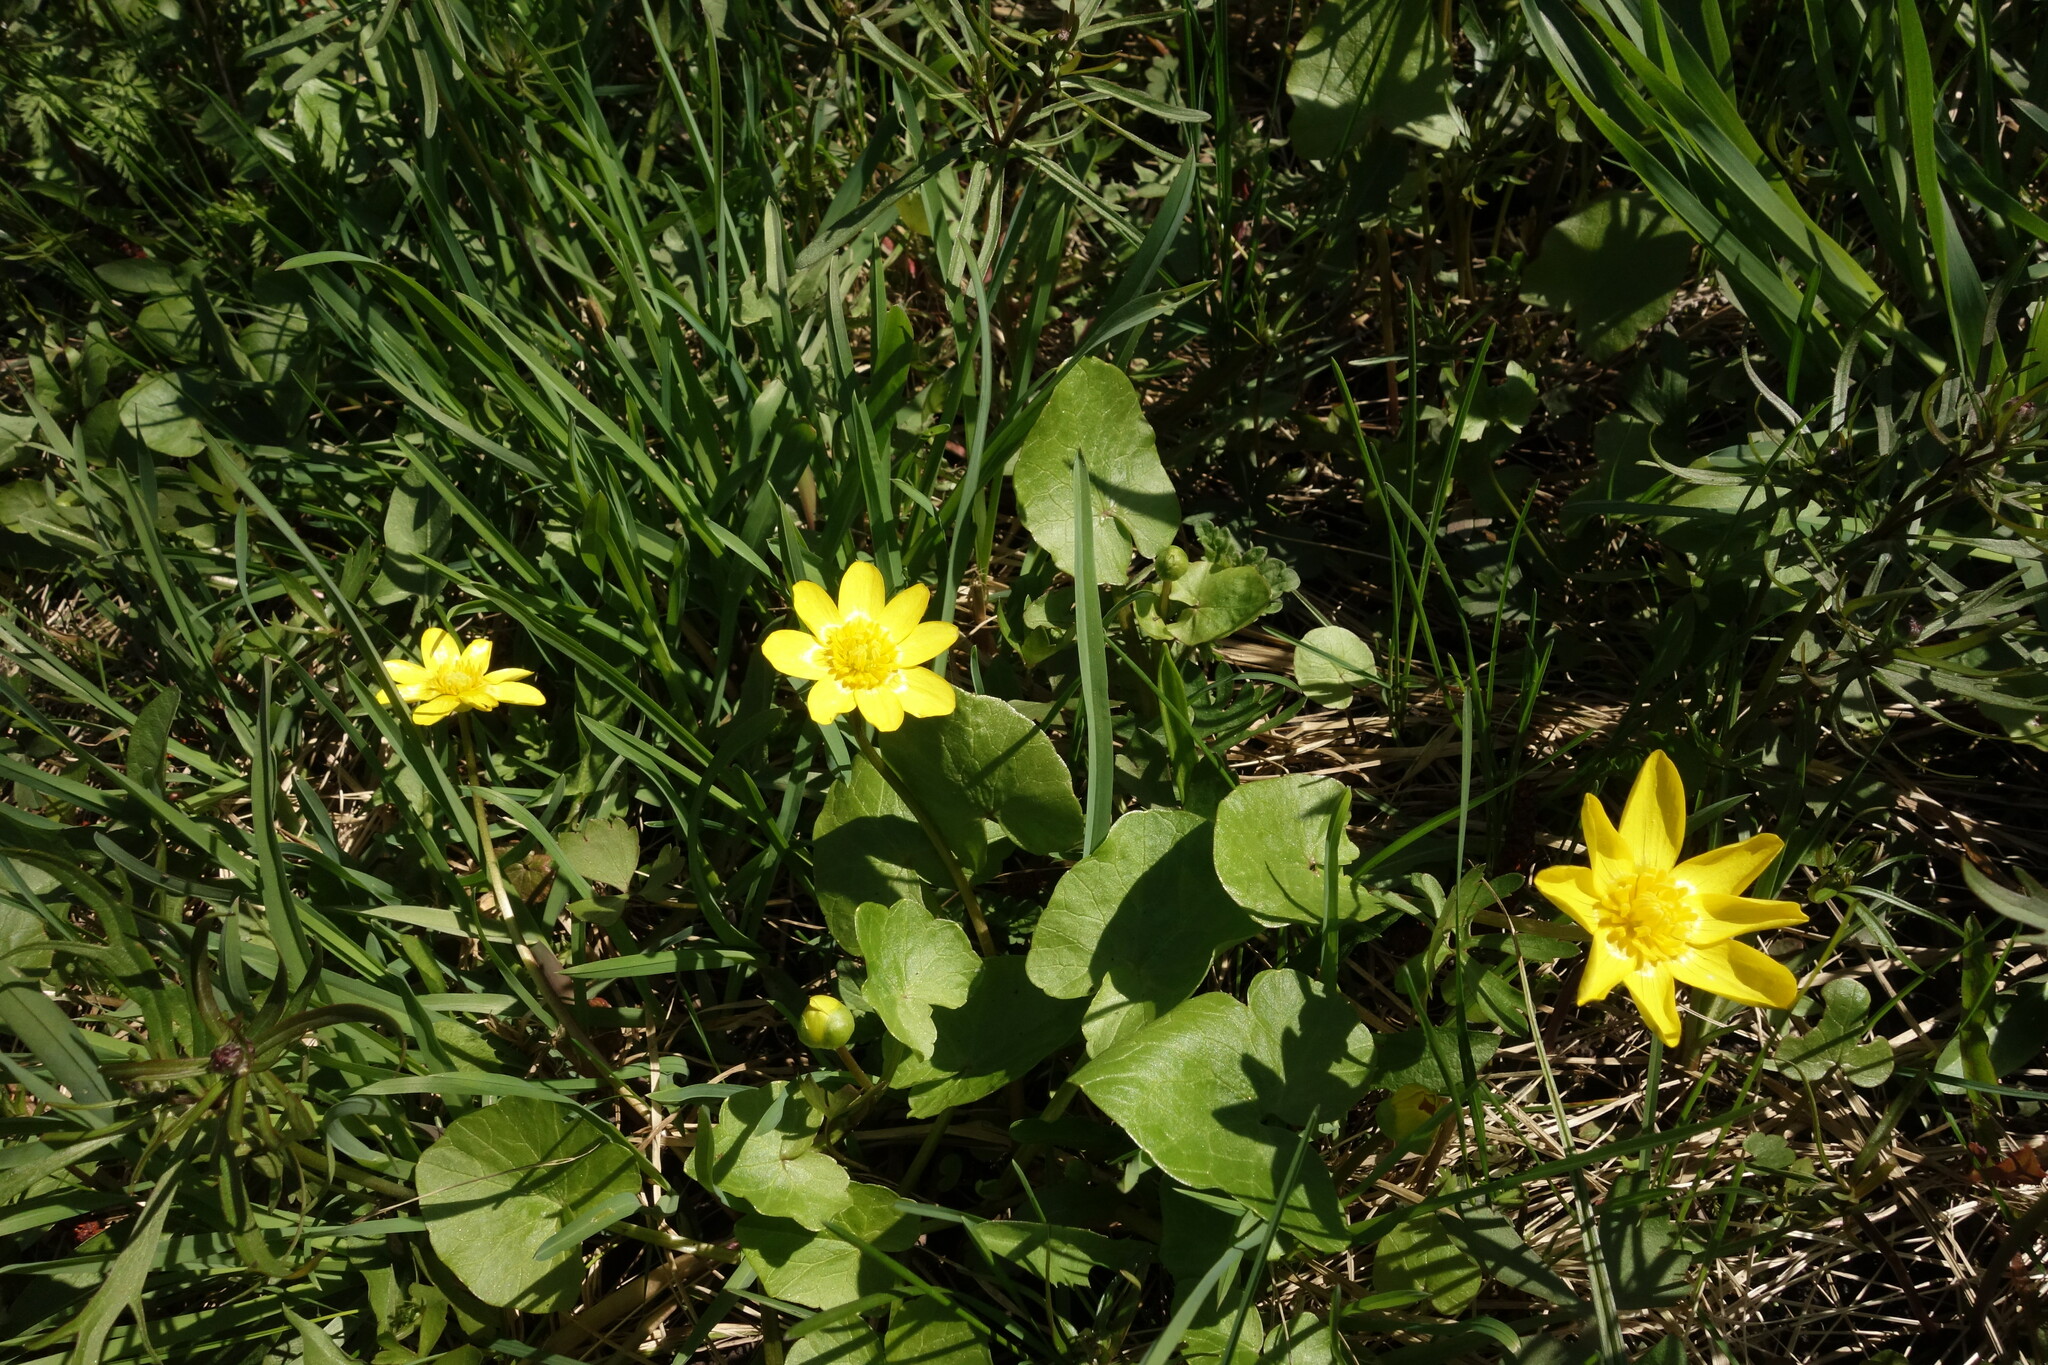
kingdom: Plantae
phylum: Tracheophyta
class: Magnoliopsida
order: Ranunculales
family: Ranunculaceae
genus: Ficaria
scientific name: Ficaria verna
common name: Lesser celandine
